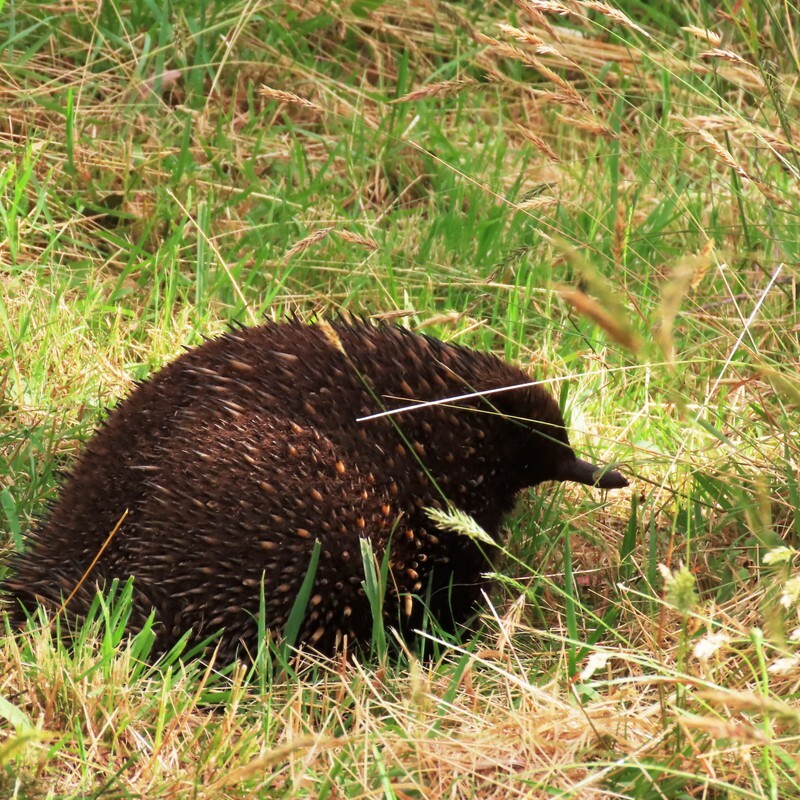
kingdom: Animalia
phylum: Chordata
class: Mammalia
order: Monotremata
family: Tachyglossidae
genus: Tachyglossus
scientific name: Tachyglossus aculeatus
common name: Short-beaked echidna
